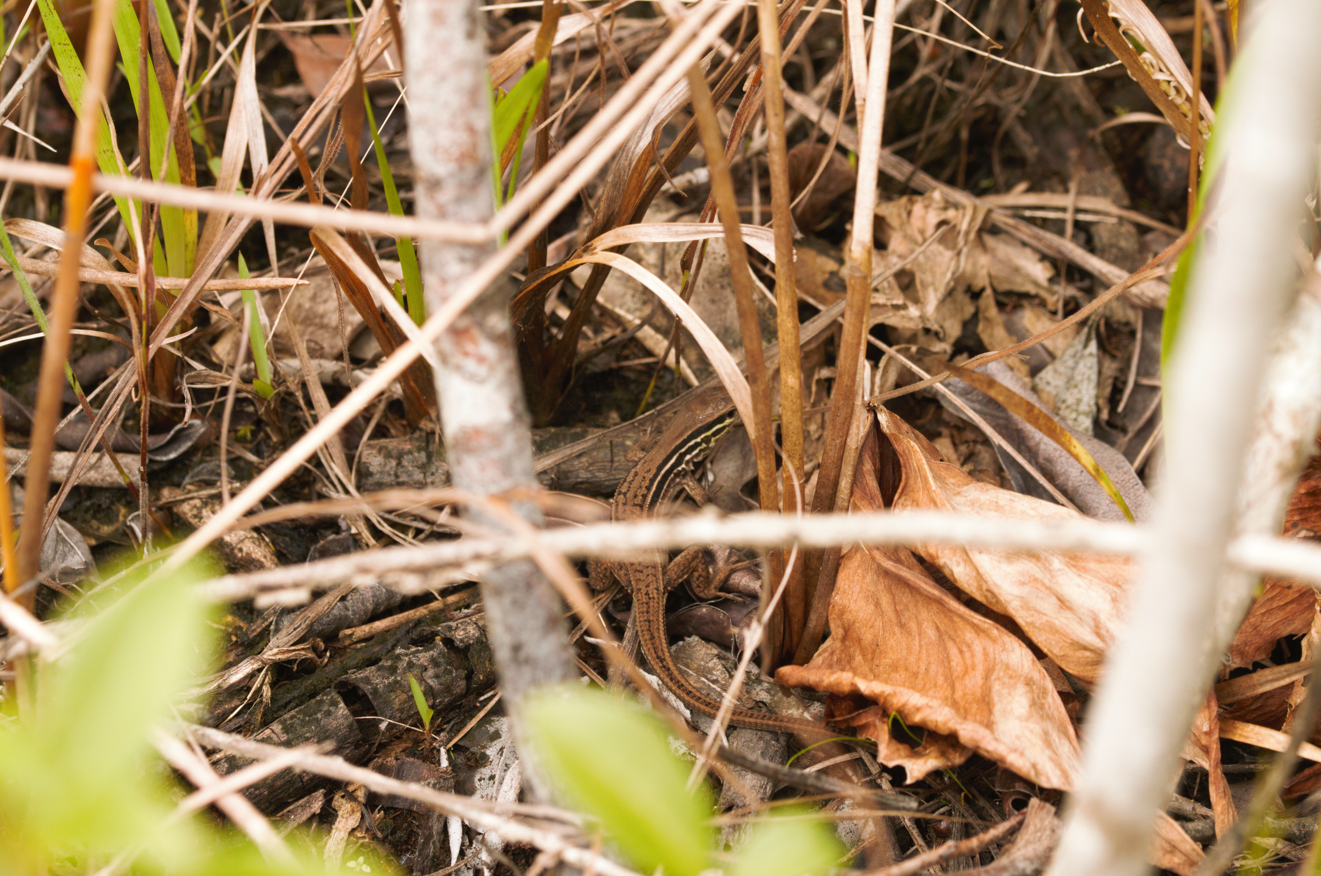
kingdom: Animalia
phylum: Chordata
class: Squamata
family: Teiidae
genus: Ameiva
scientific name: Ameiva ameiva
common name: Giant ameiva
